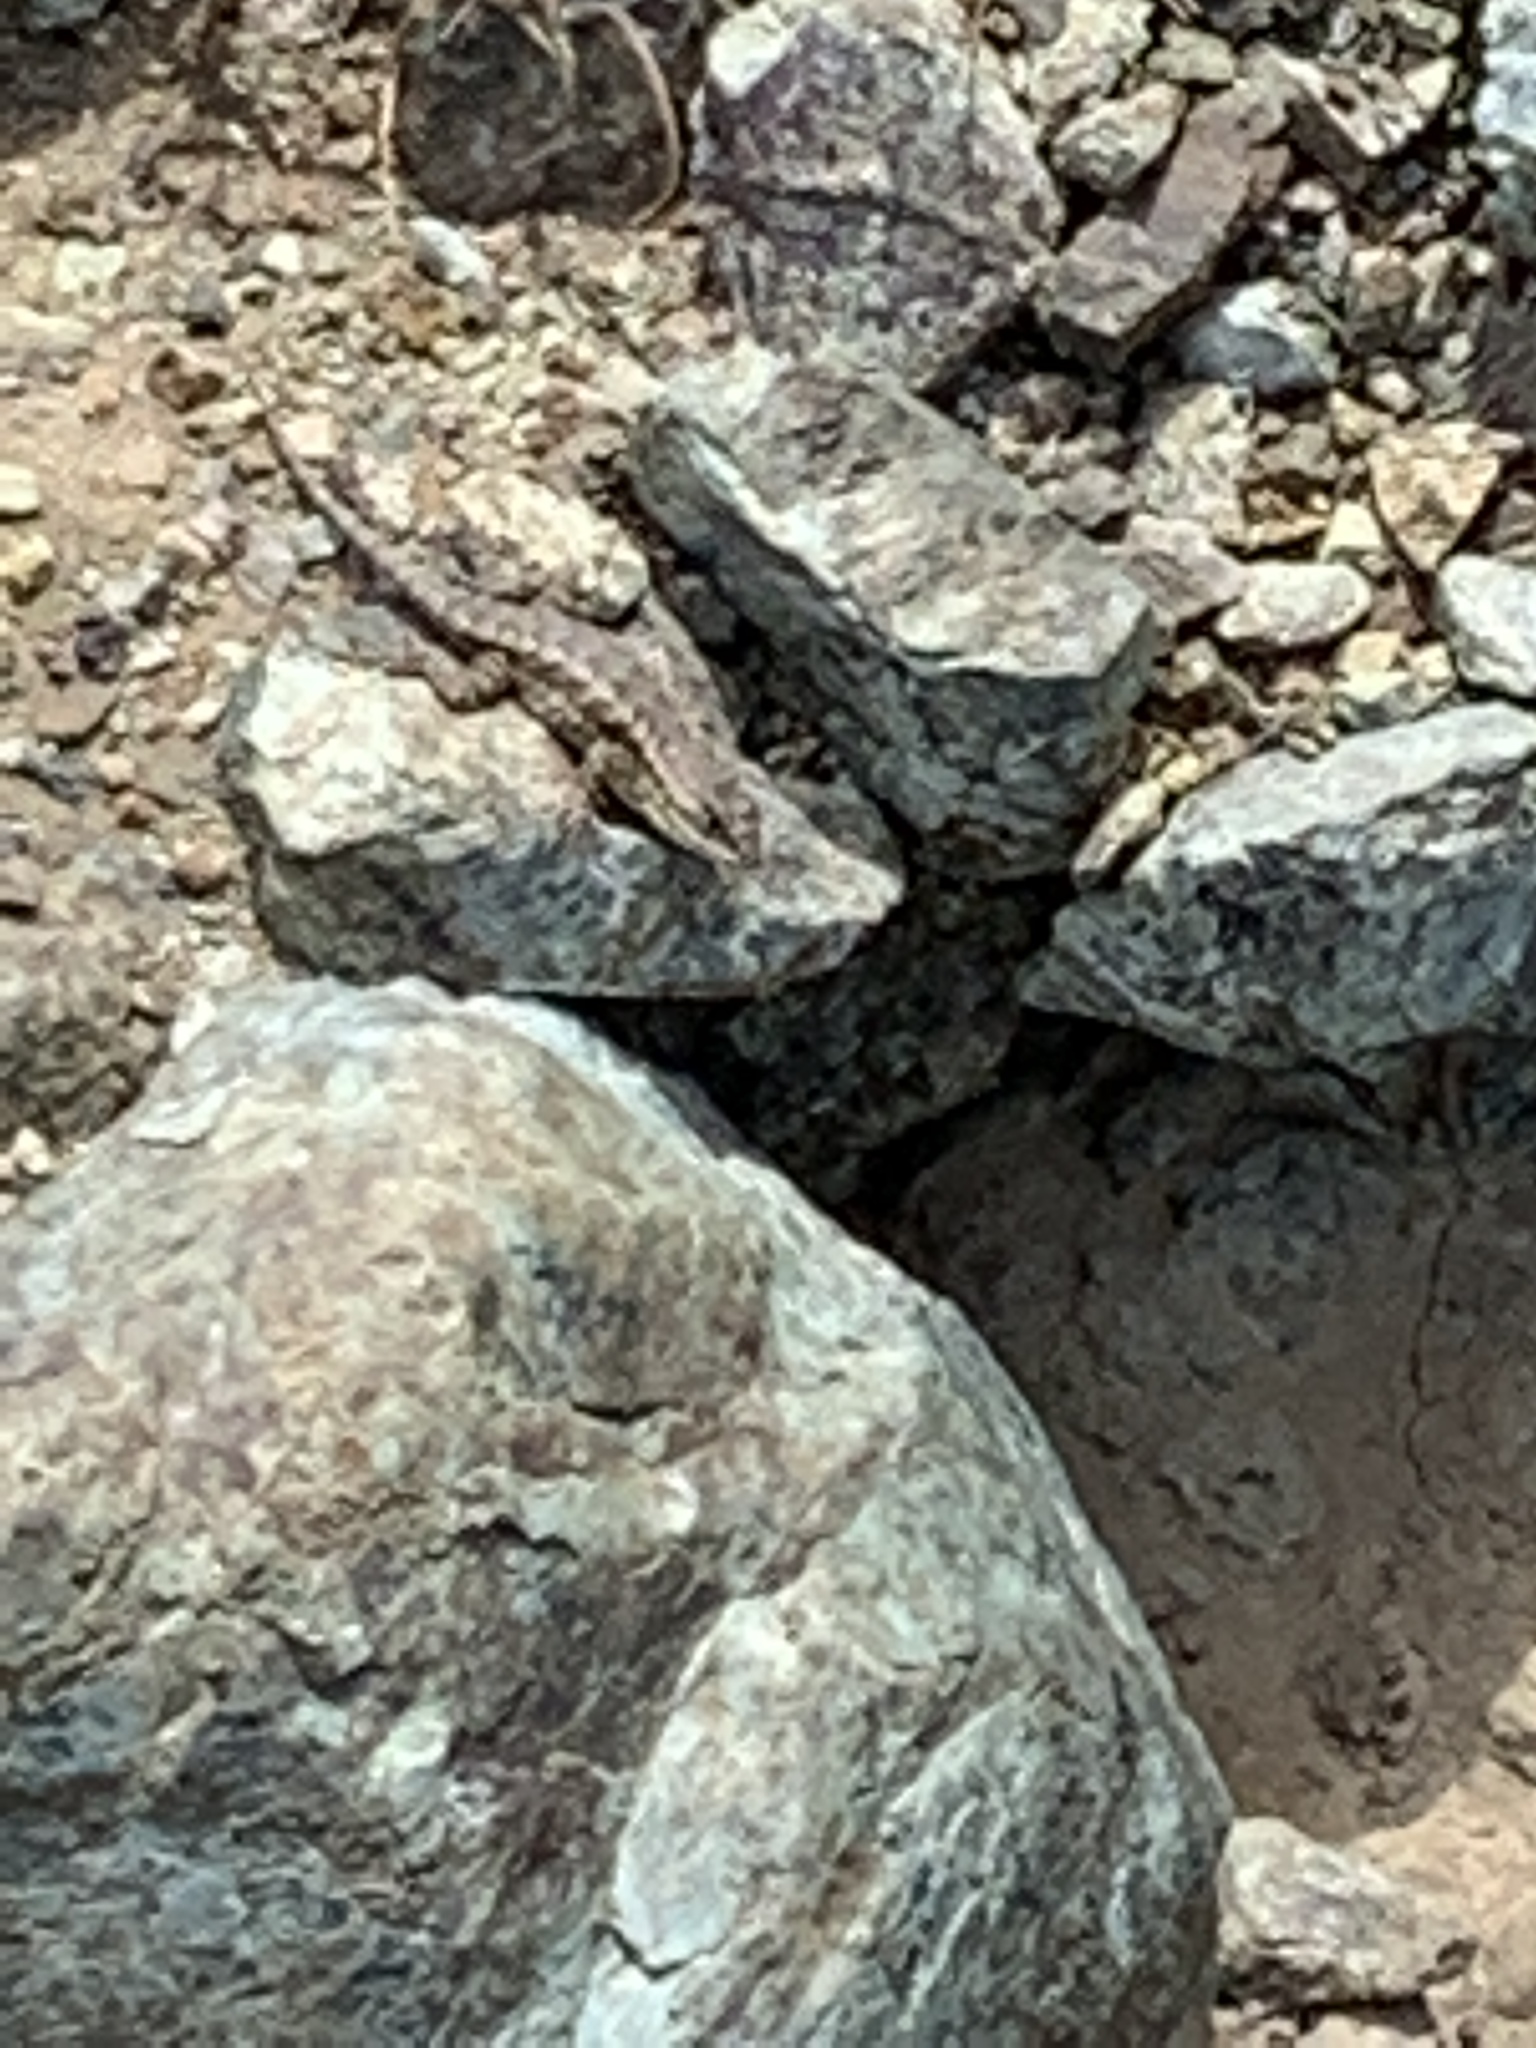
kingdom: Animalia
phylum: Chordata
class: Squamata
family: Phrynosomatidae
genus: Sceloporus
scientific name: Sceloporus occidentalis
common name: Western fence lizard
